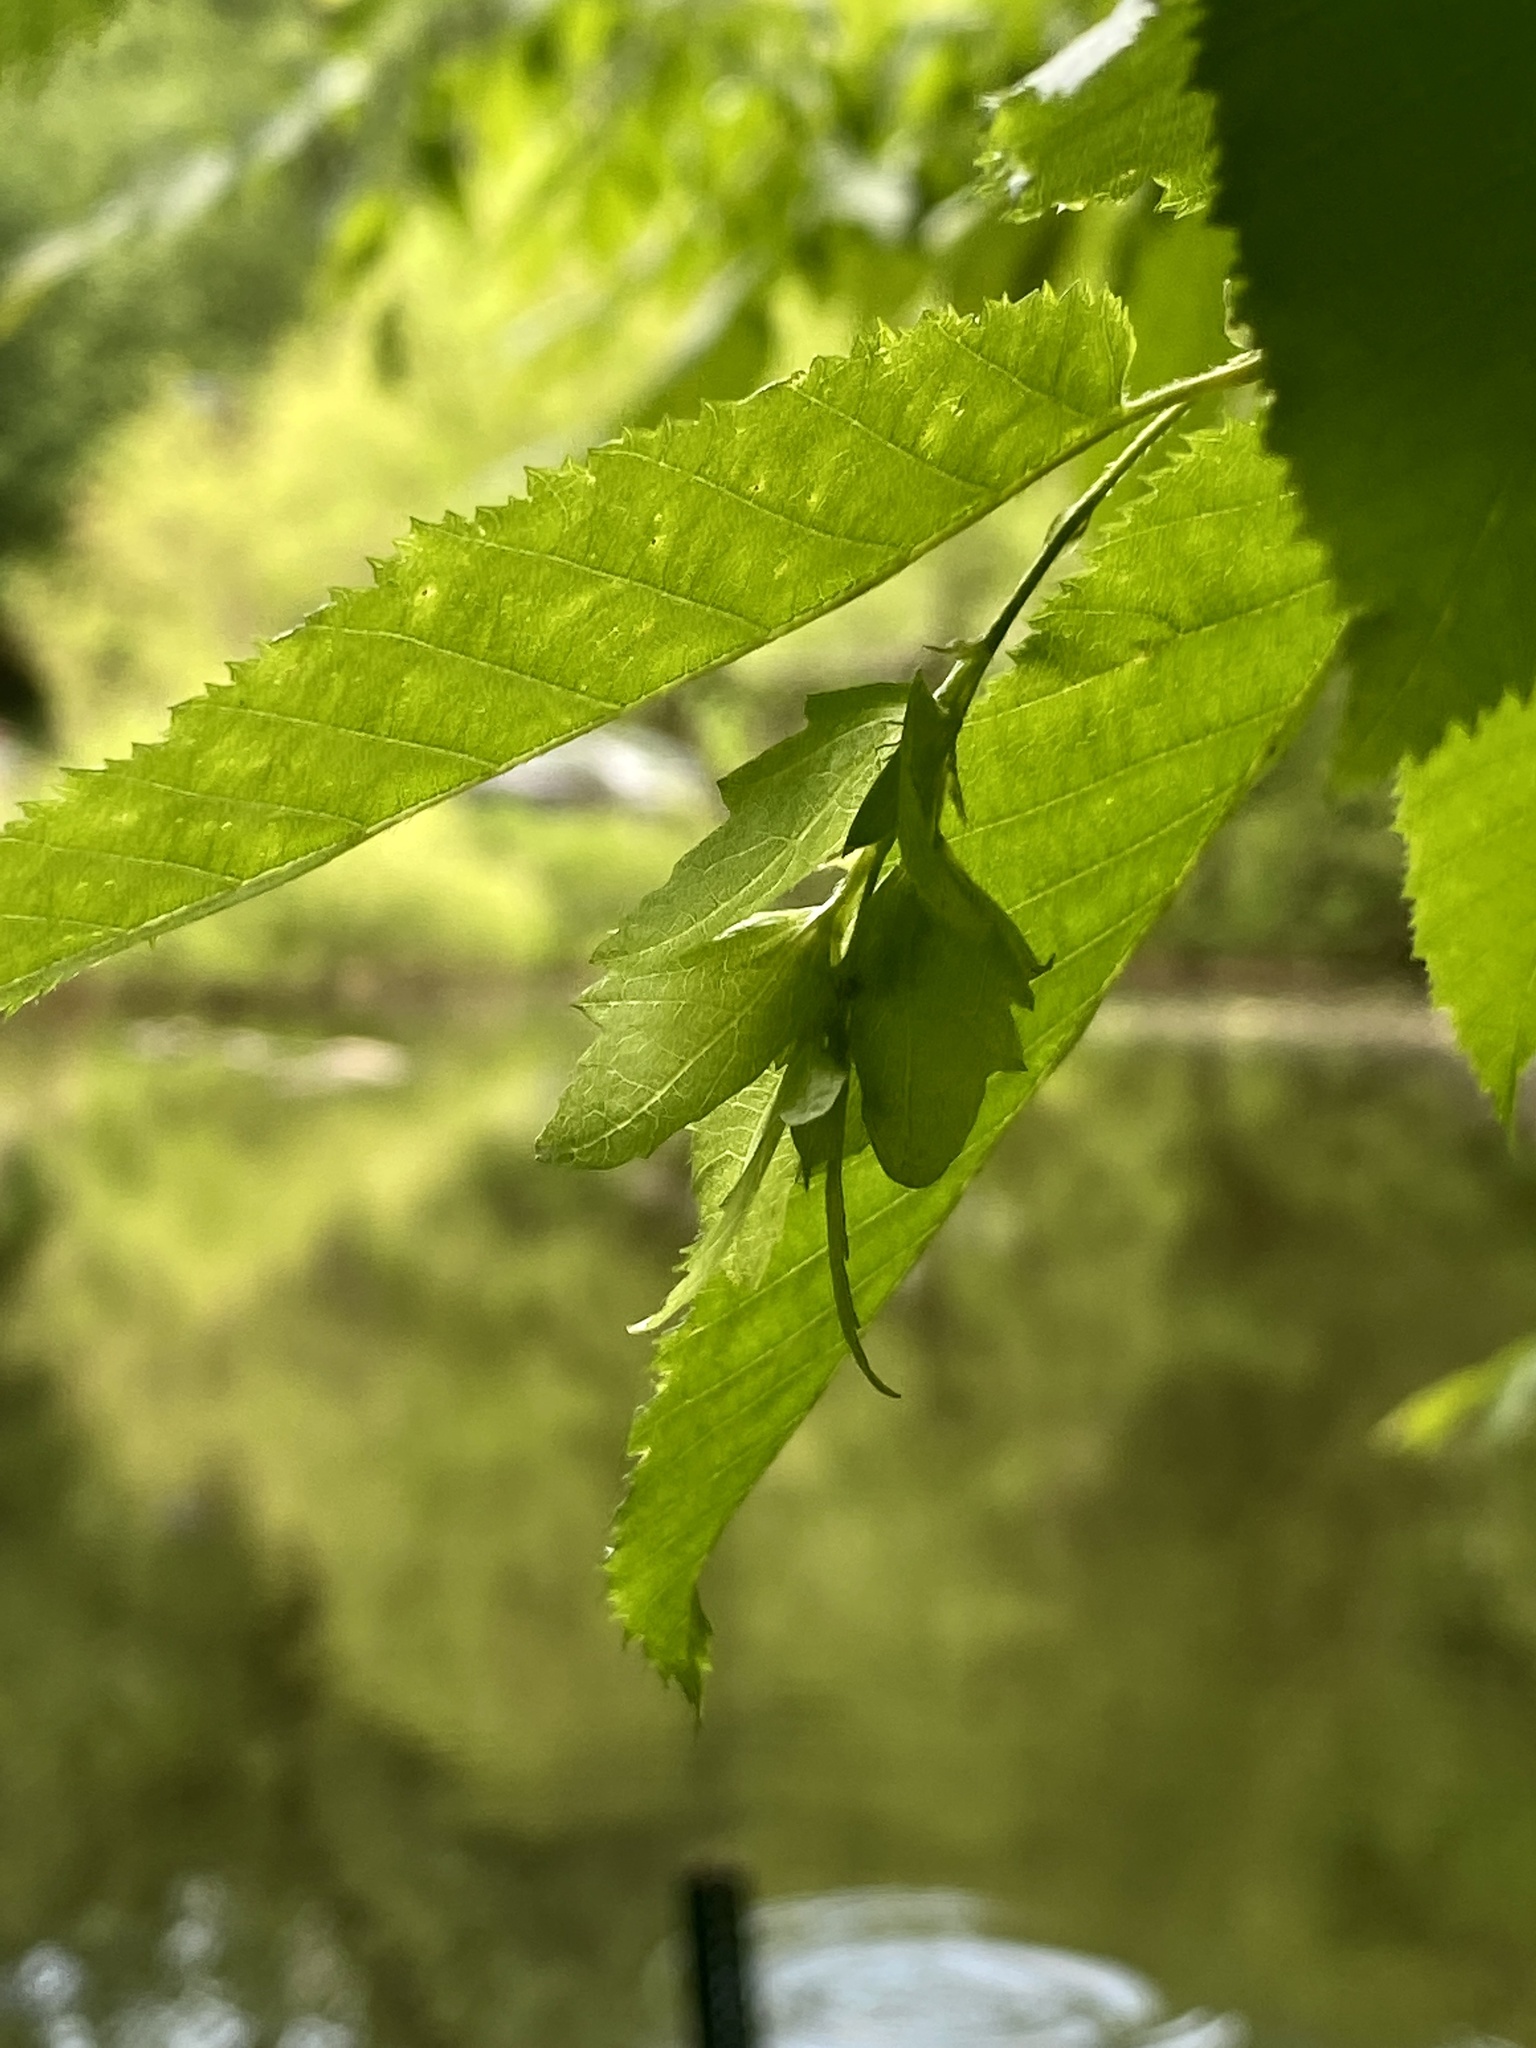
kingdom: Plantae
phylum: Tracheophyta
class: Magnoliopsida
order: Fagales
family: Betulaceae
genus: Carpinus
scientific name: Carpinus caroliniana
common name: American hornbeam
